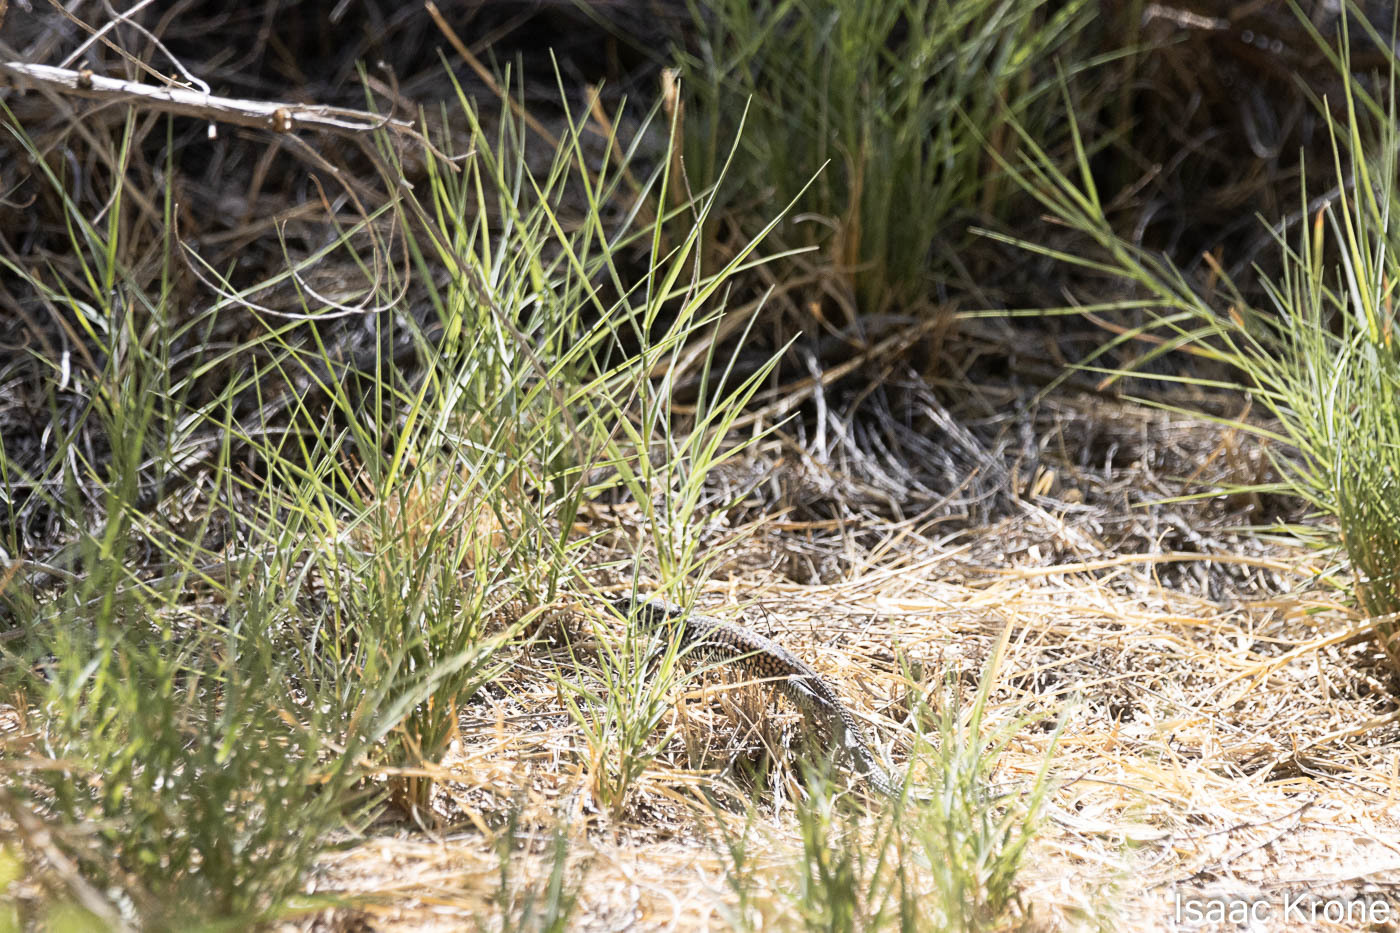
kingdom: Animalia
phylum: Chordata
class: Squamata
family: Teiidae
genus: Aspidoscelis
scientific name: Aspidoscelis tigris
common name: Tiger whiptail
